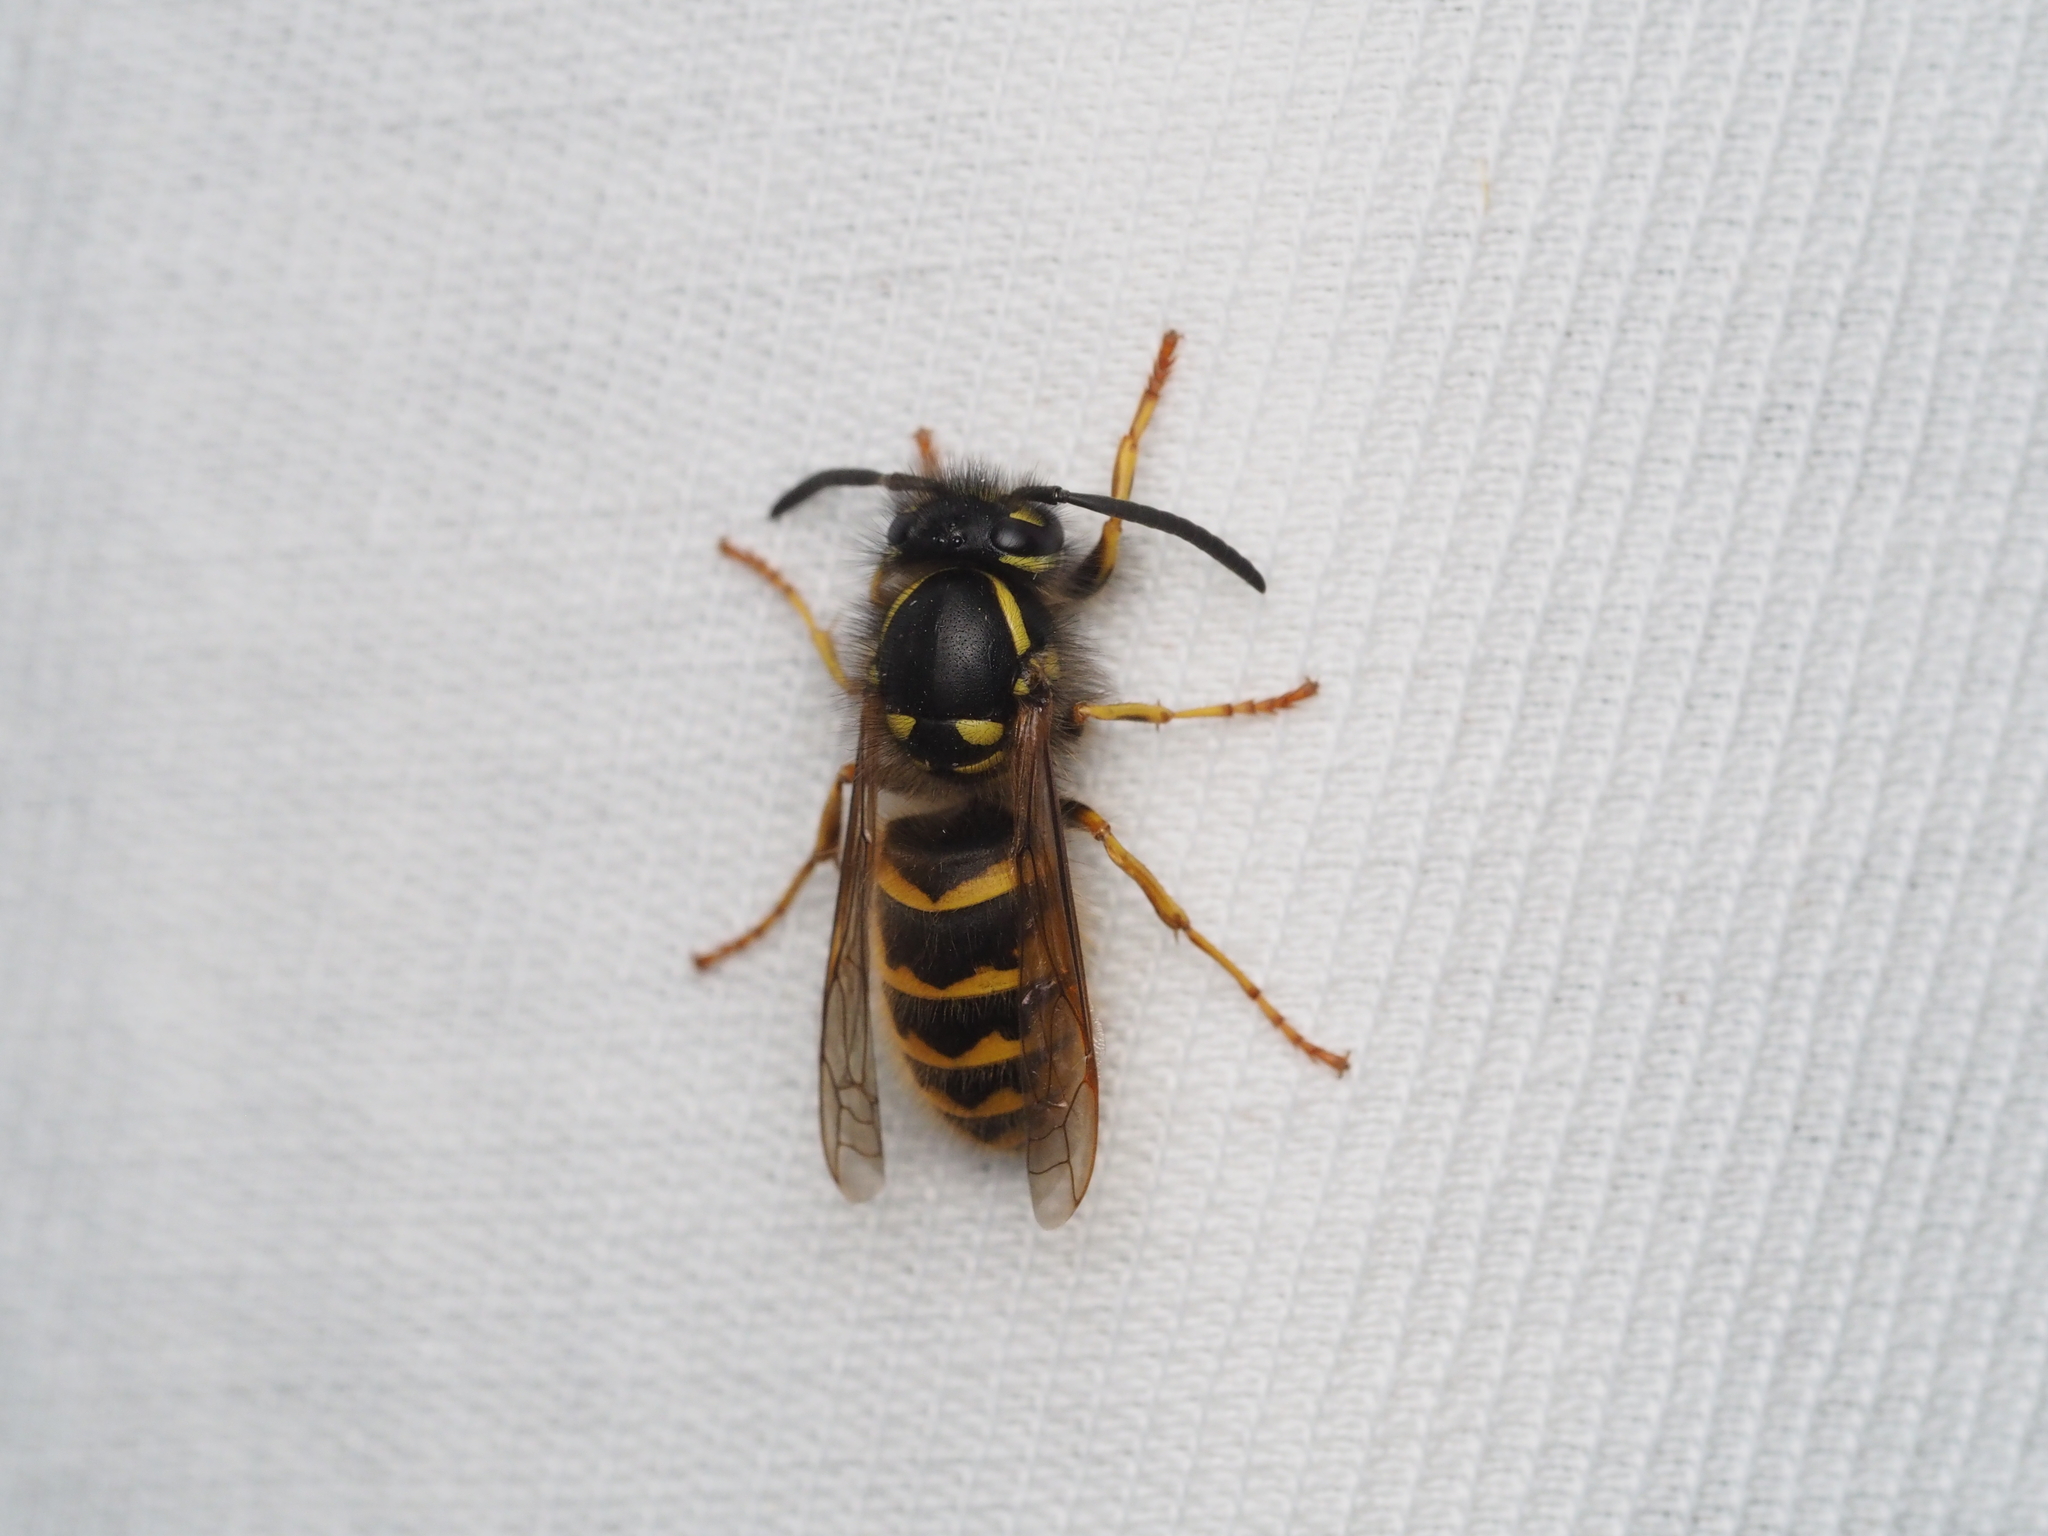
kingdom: Animalia
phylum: Arthropoda
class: Insecta
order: Hymenoptera
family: Vespidae
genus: Vespula
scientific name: Vespula vulgaris
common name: Common wasp
